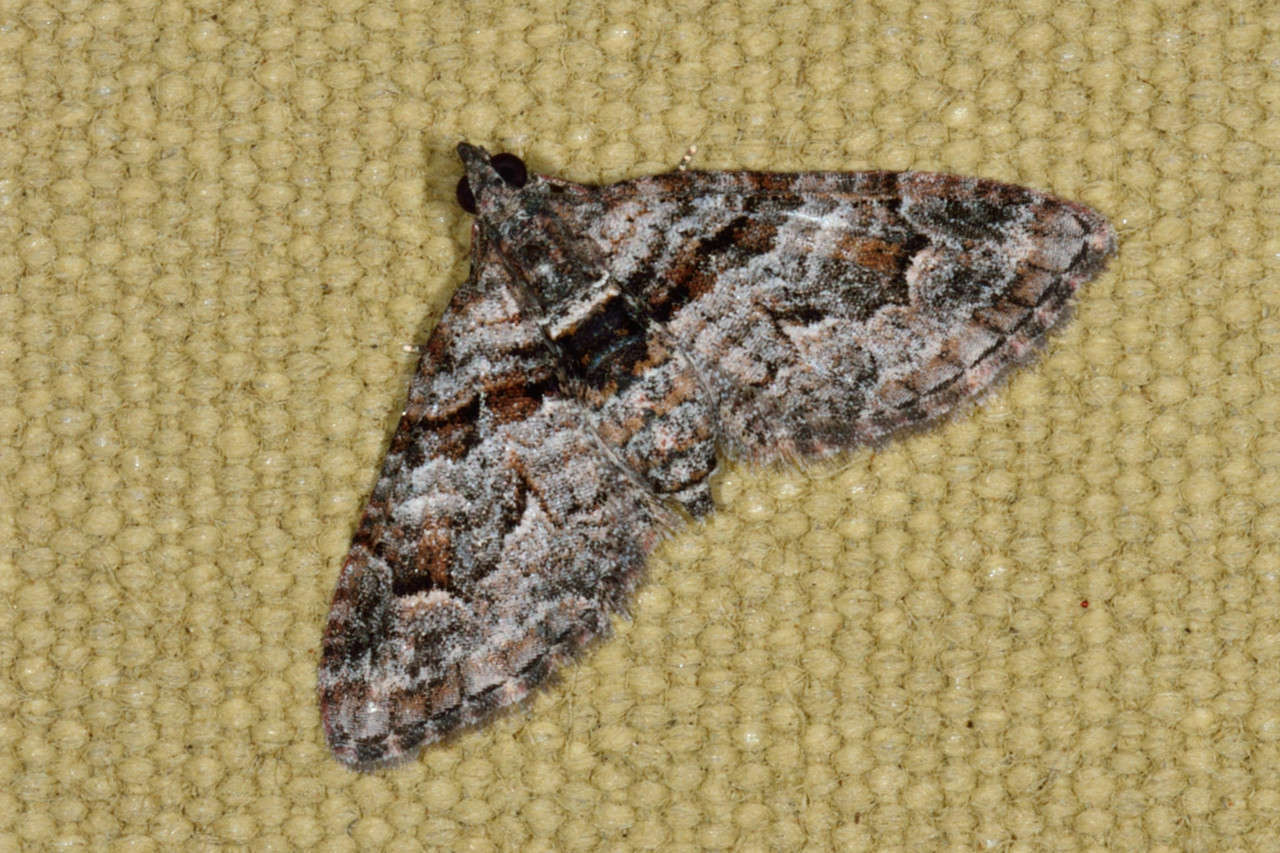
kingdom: Animalia
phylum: Arthropoda
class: Insecta
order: Lepidoptera
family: Geometridae
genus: Phrissogonus
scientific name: Phrissogonus laticostata
